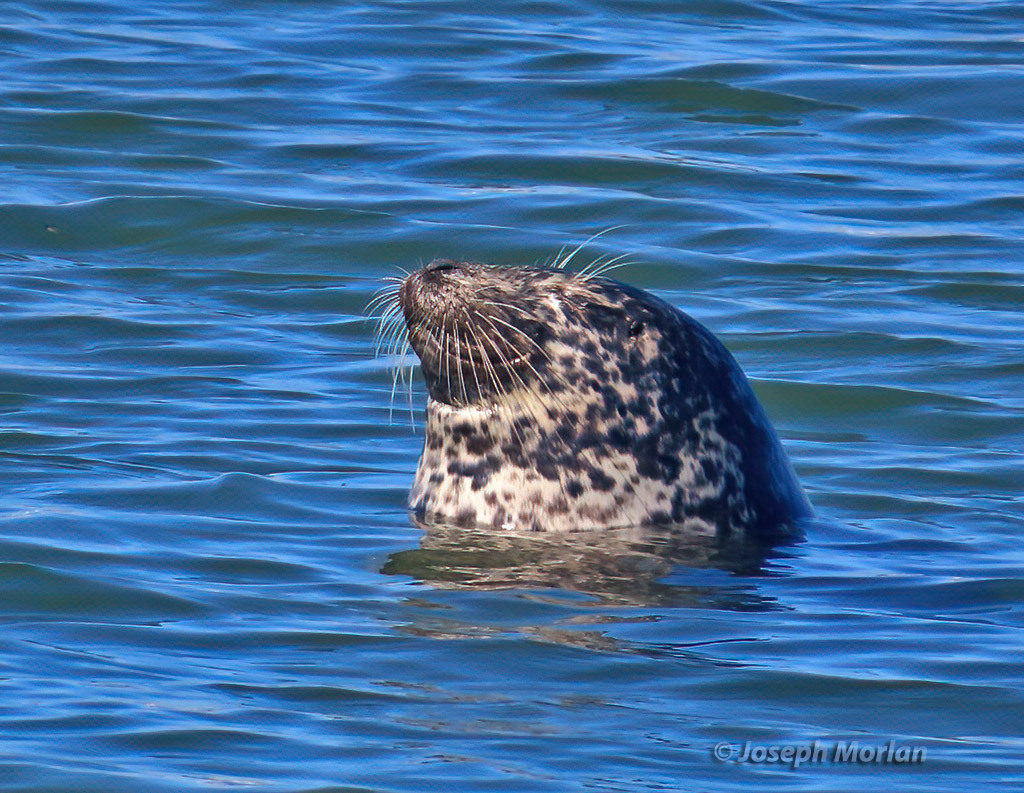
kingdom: Animalia
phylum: Chordata
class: Mammalia
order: Carnivora
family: Phocidae
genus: Phoca
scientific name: Phoca vitulina
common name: Harbor seal
